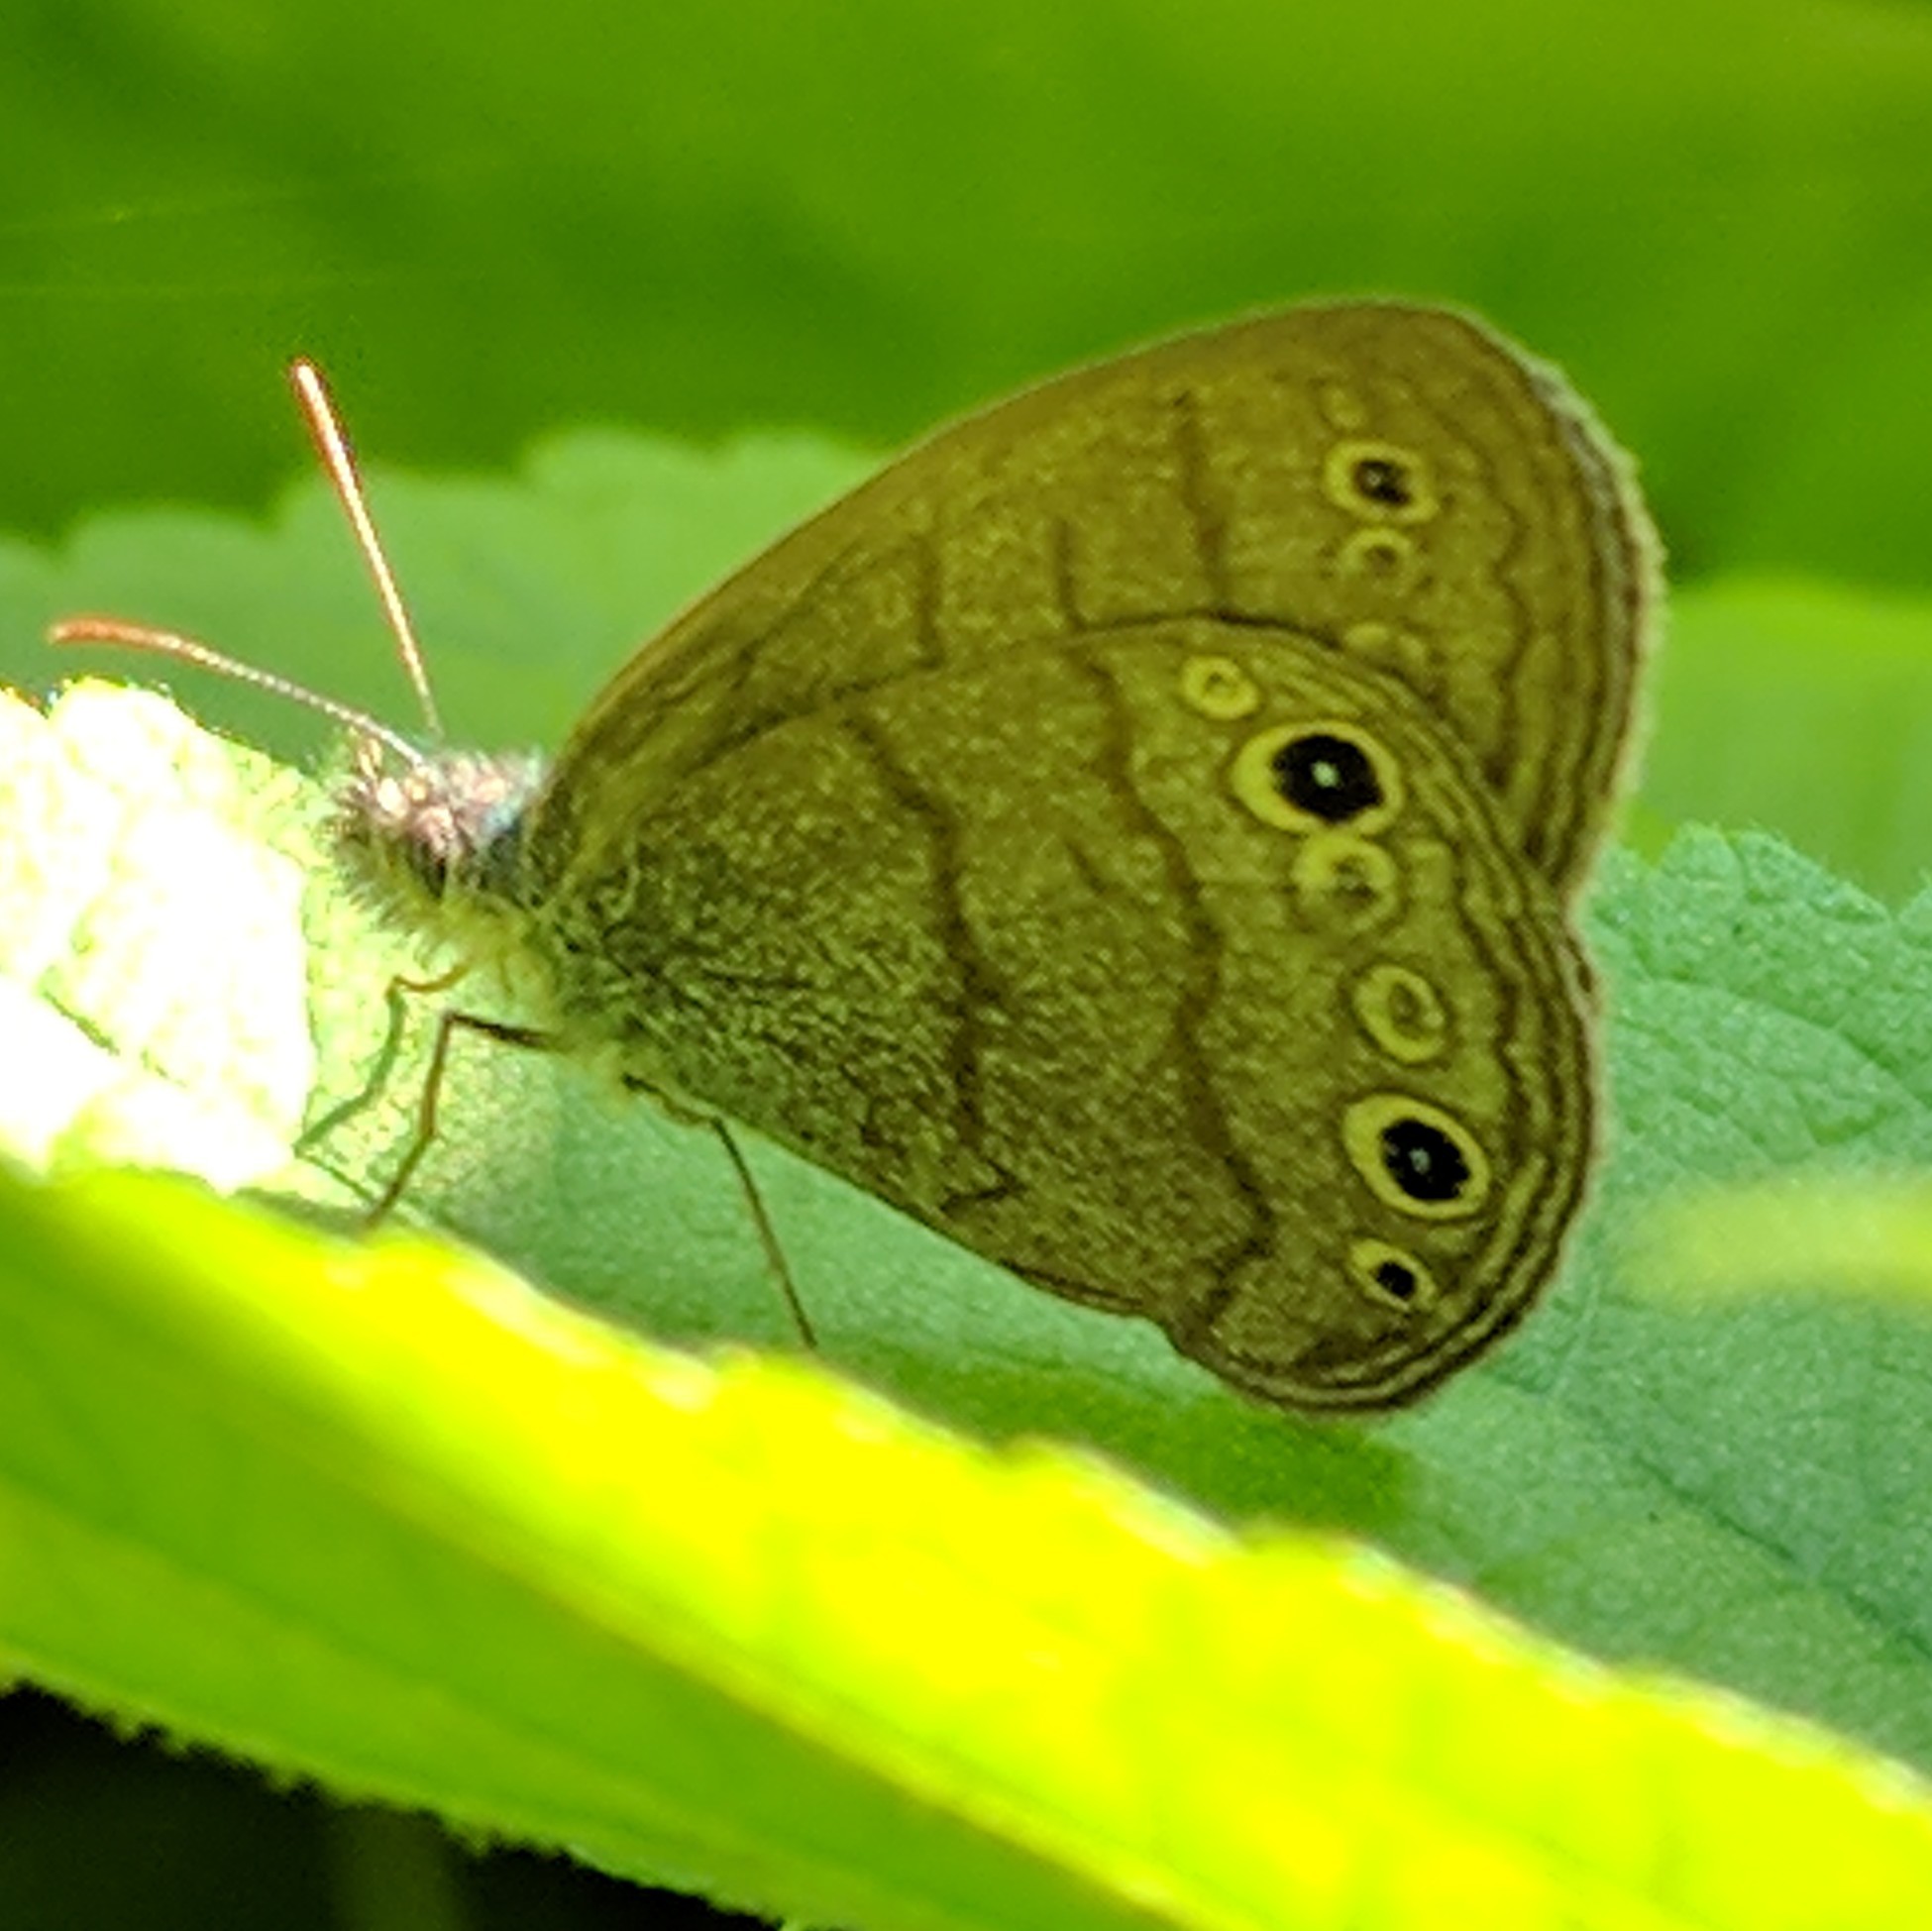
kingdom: Animalia
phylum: Arthropoda
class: Insecta
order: Lepidoptera
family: Nymphalidae
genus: Hermeuptychia
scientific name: Hermeuptychia hermes
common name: Hermes satyr
